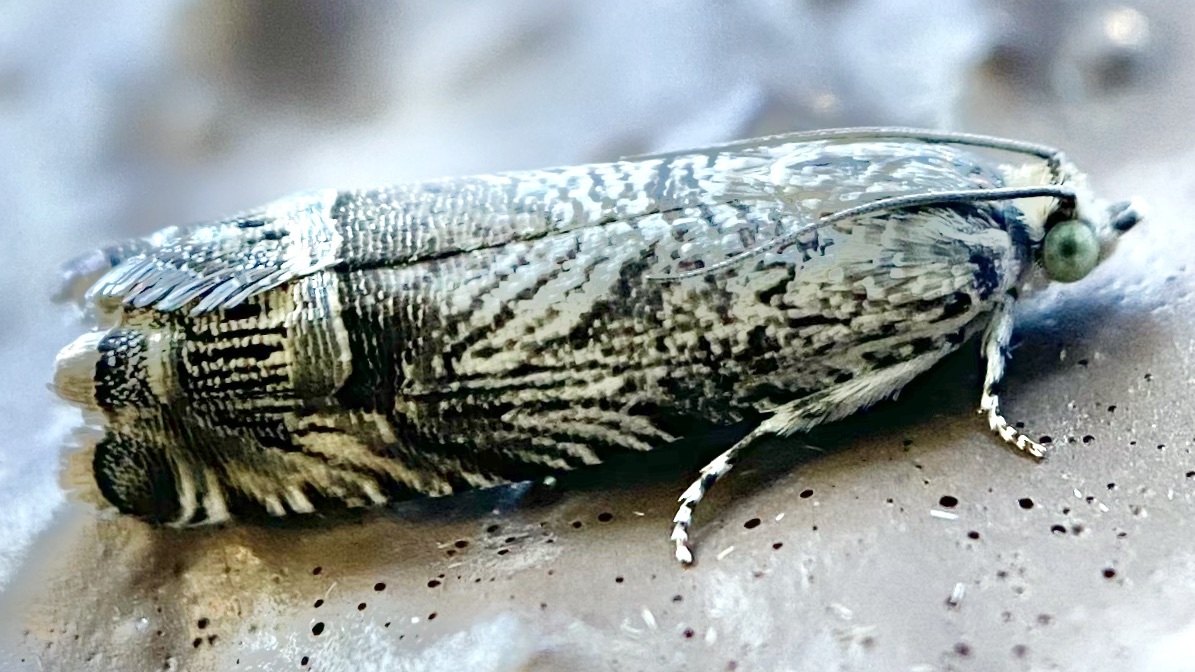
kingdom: Animalia
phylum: Arthropoda
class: Insecta
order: Lepidoptera
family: Tortricidae
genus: Ofatulena
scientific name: Ofatulena duodecemstriata
